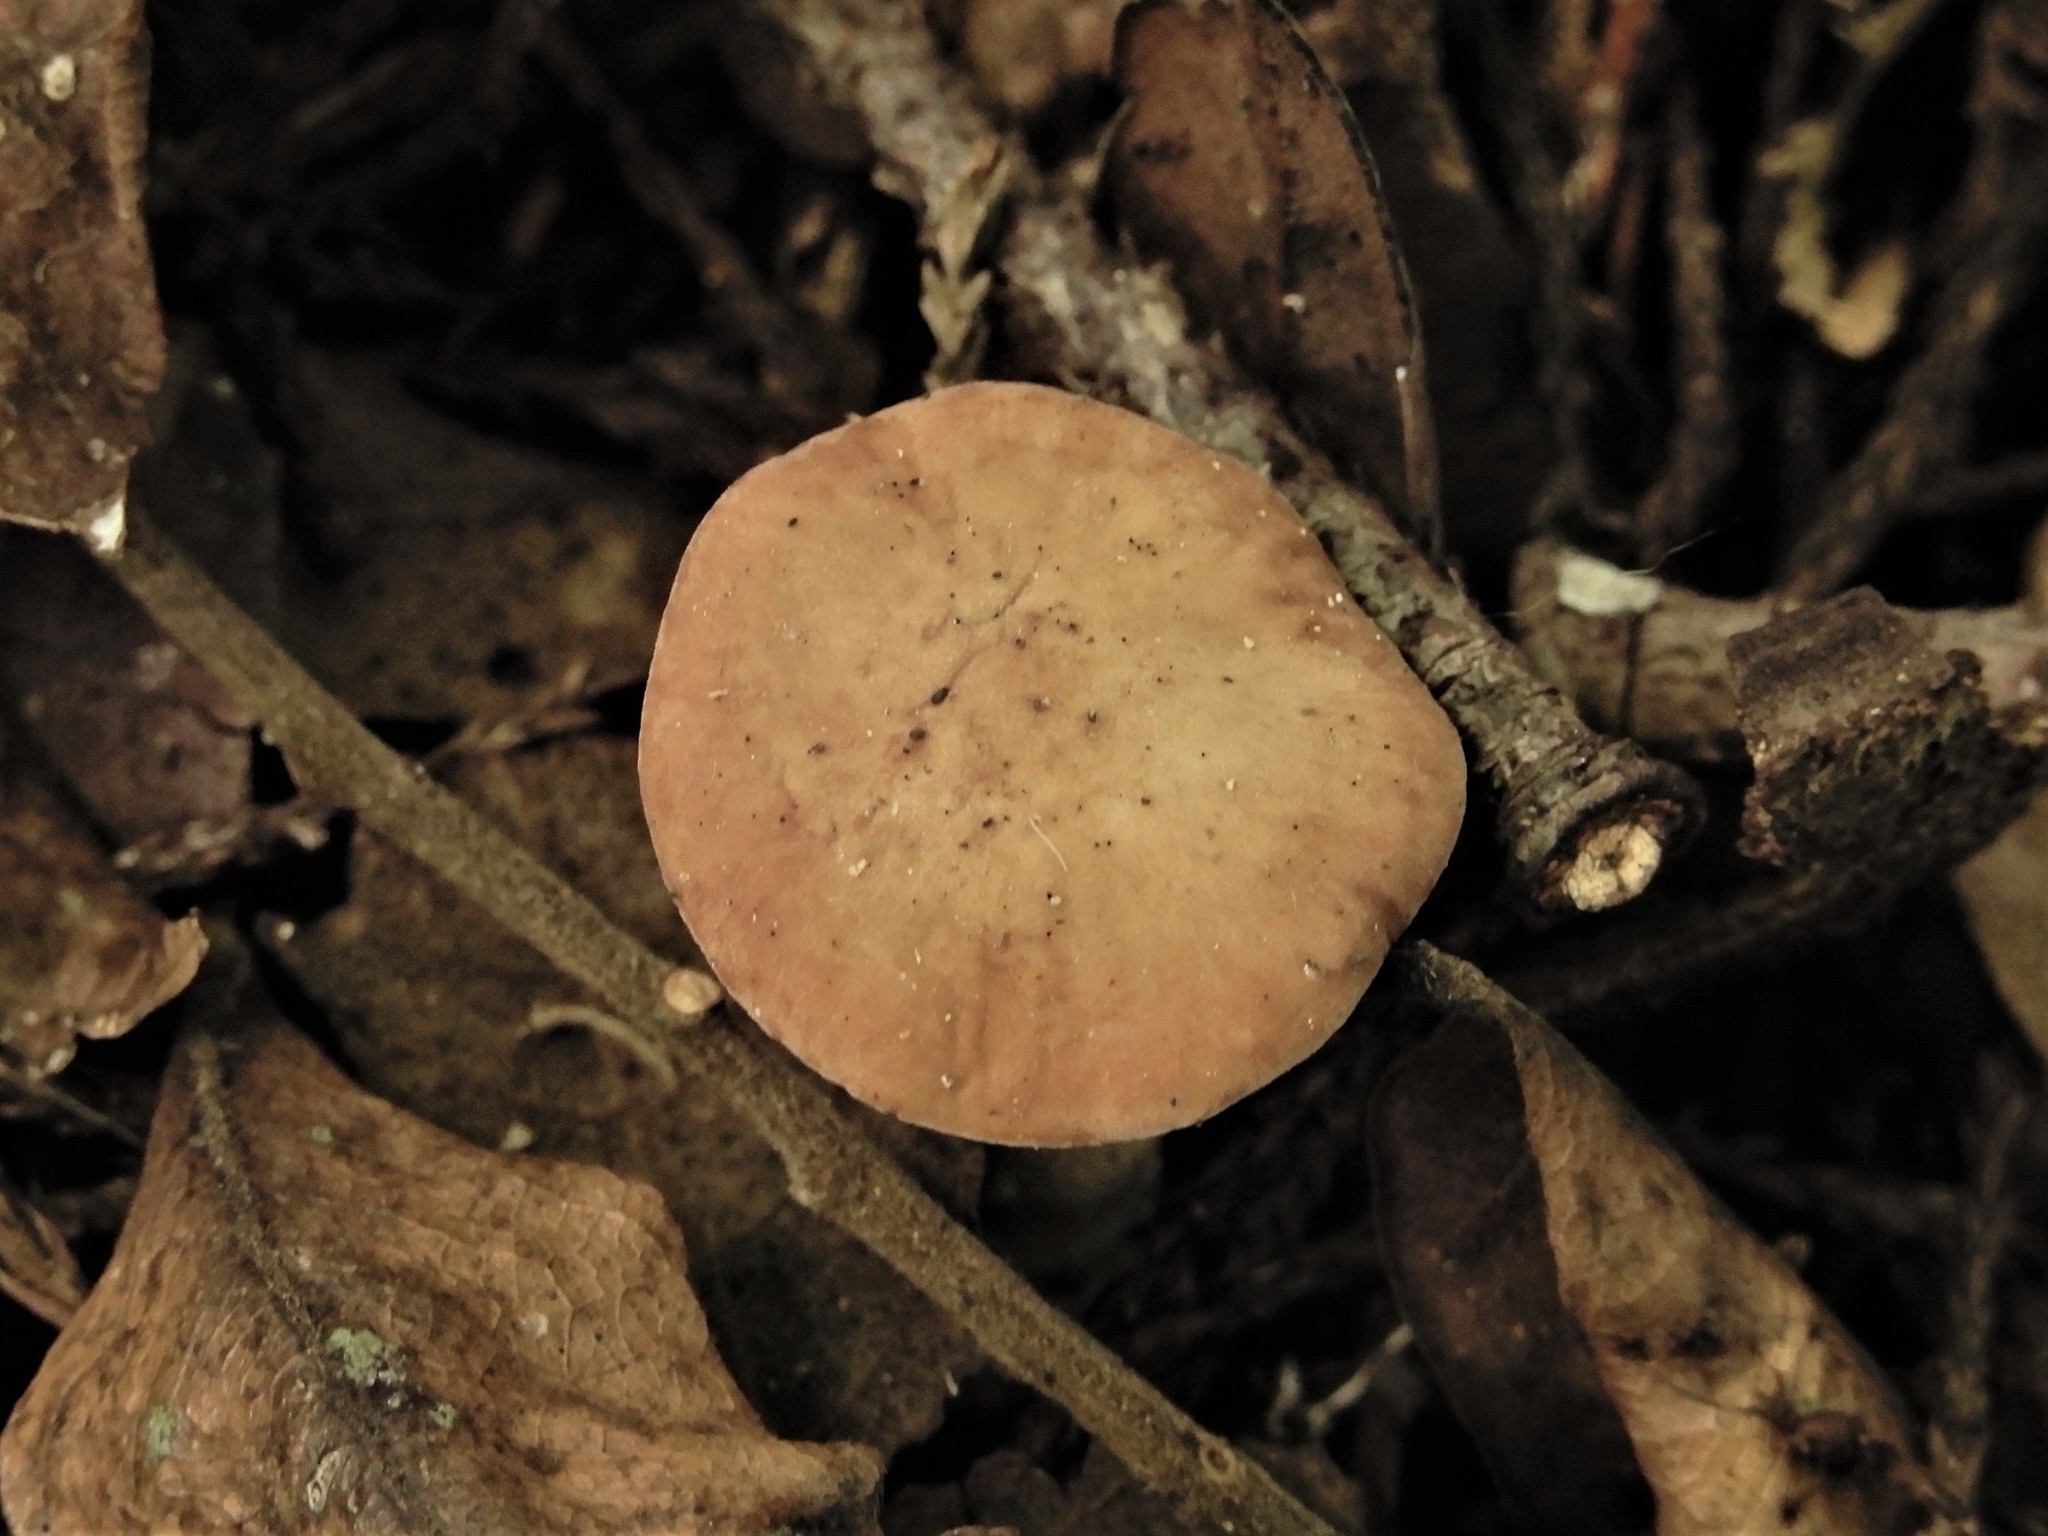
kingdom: Fungi
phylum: Basidiomycota
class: Agaricomycetes
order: Agaricales
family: Entolomataceae
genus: Clitopilus
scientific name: Clitopilus piperitus
